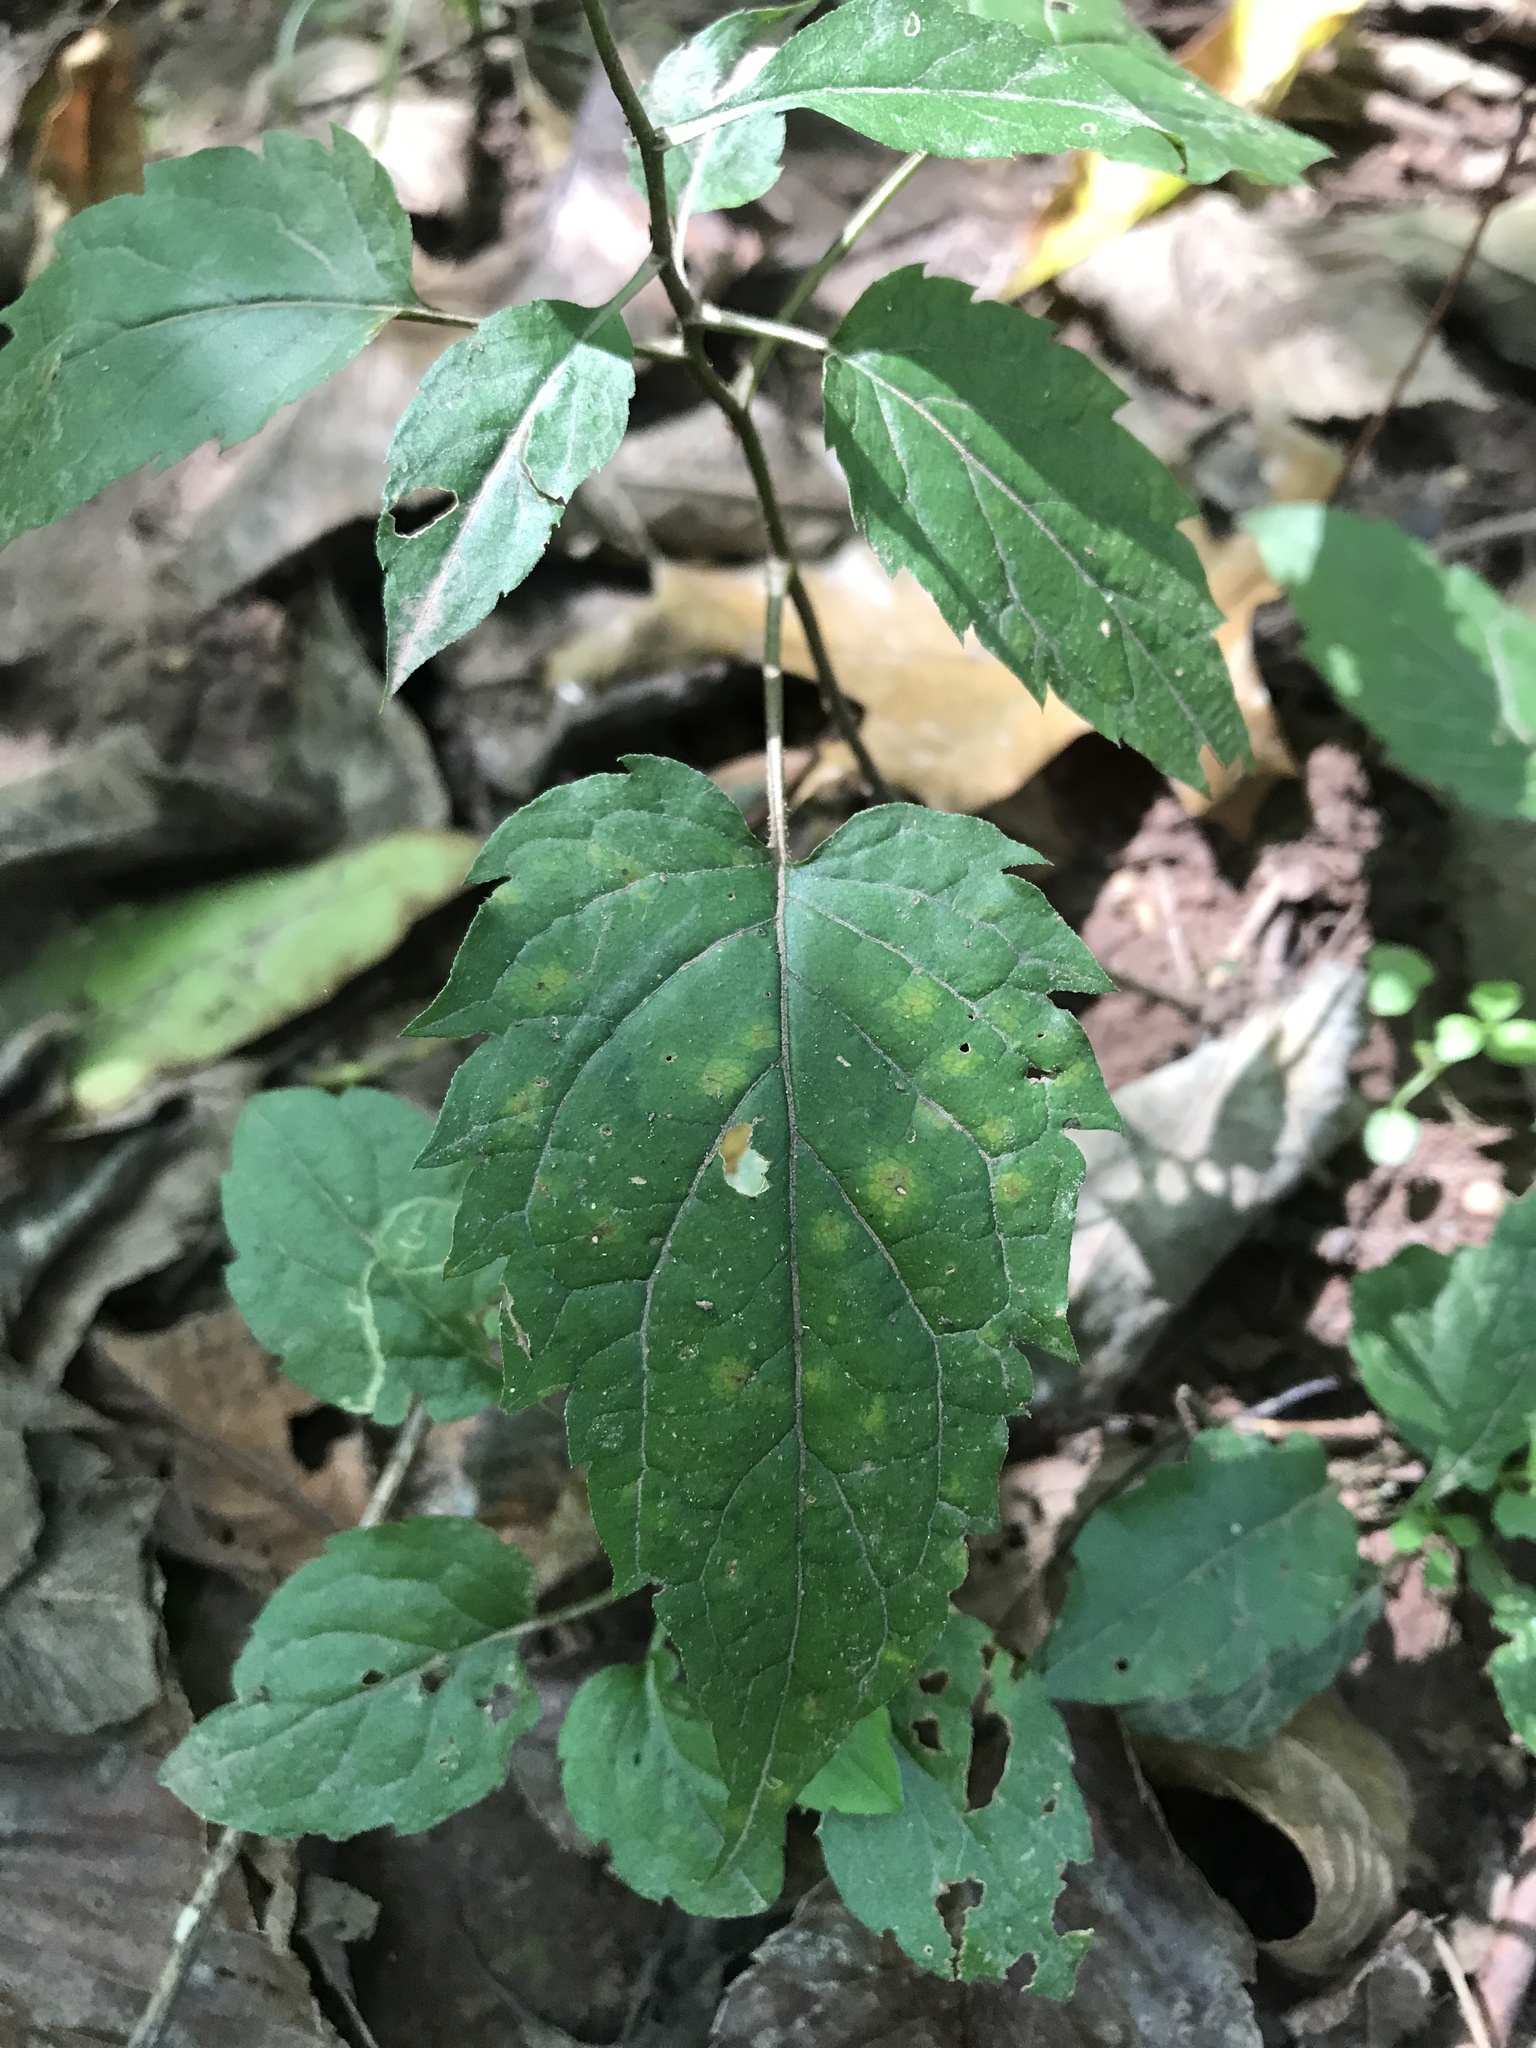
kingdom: Plantae
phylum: Tracheophyta
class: Magnoliopsida
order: Asterales
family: Asteraceae
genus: Eurybia
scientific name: Eurybia divaricata
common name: White wood aster
